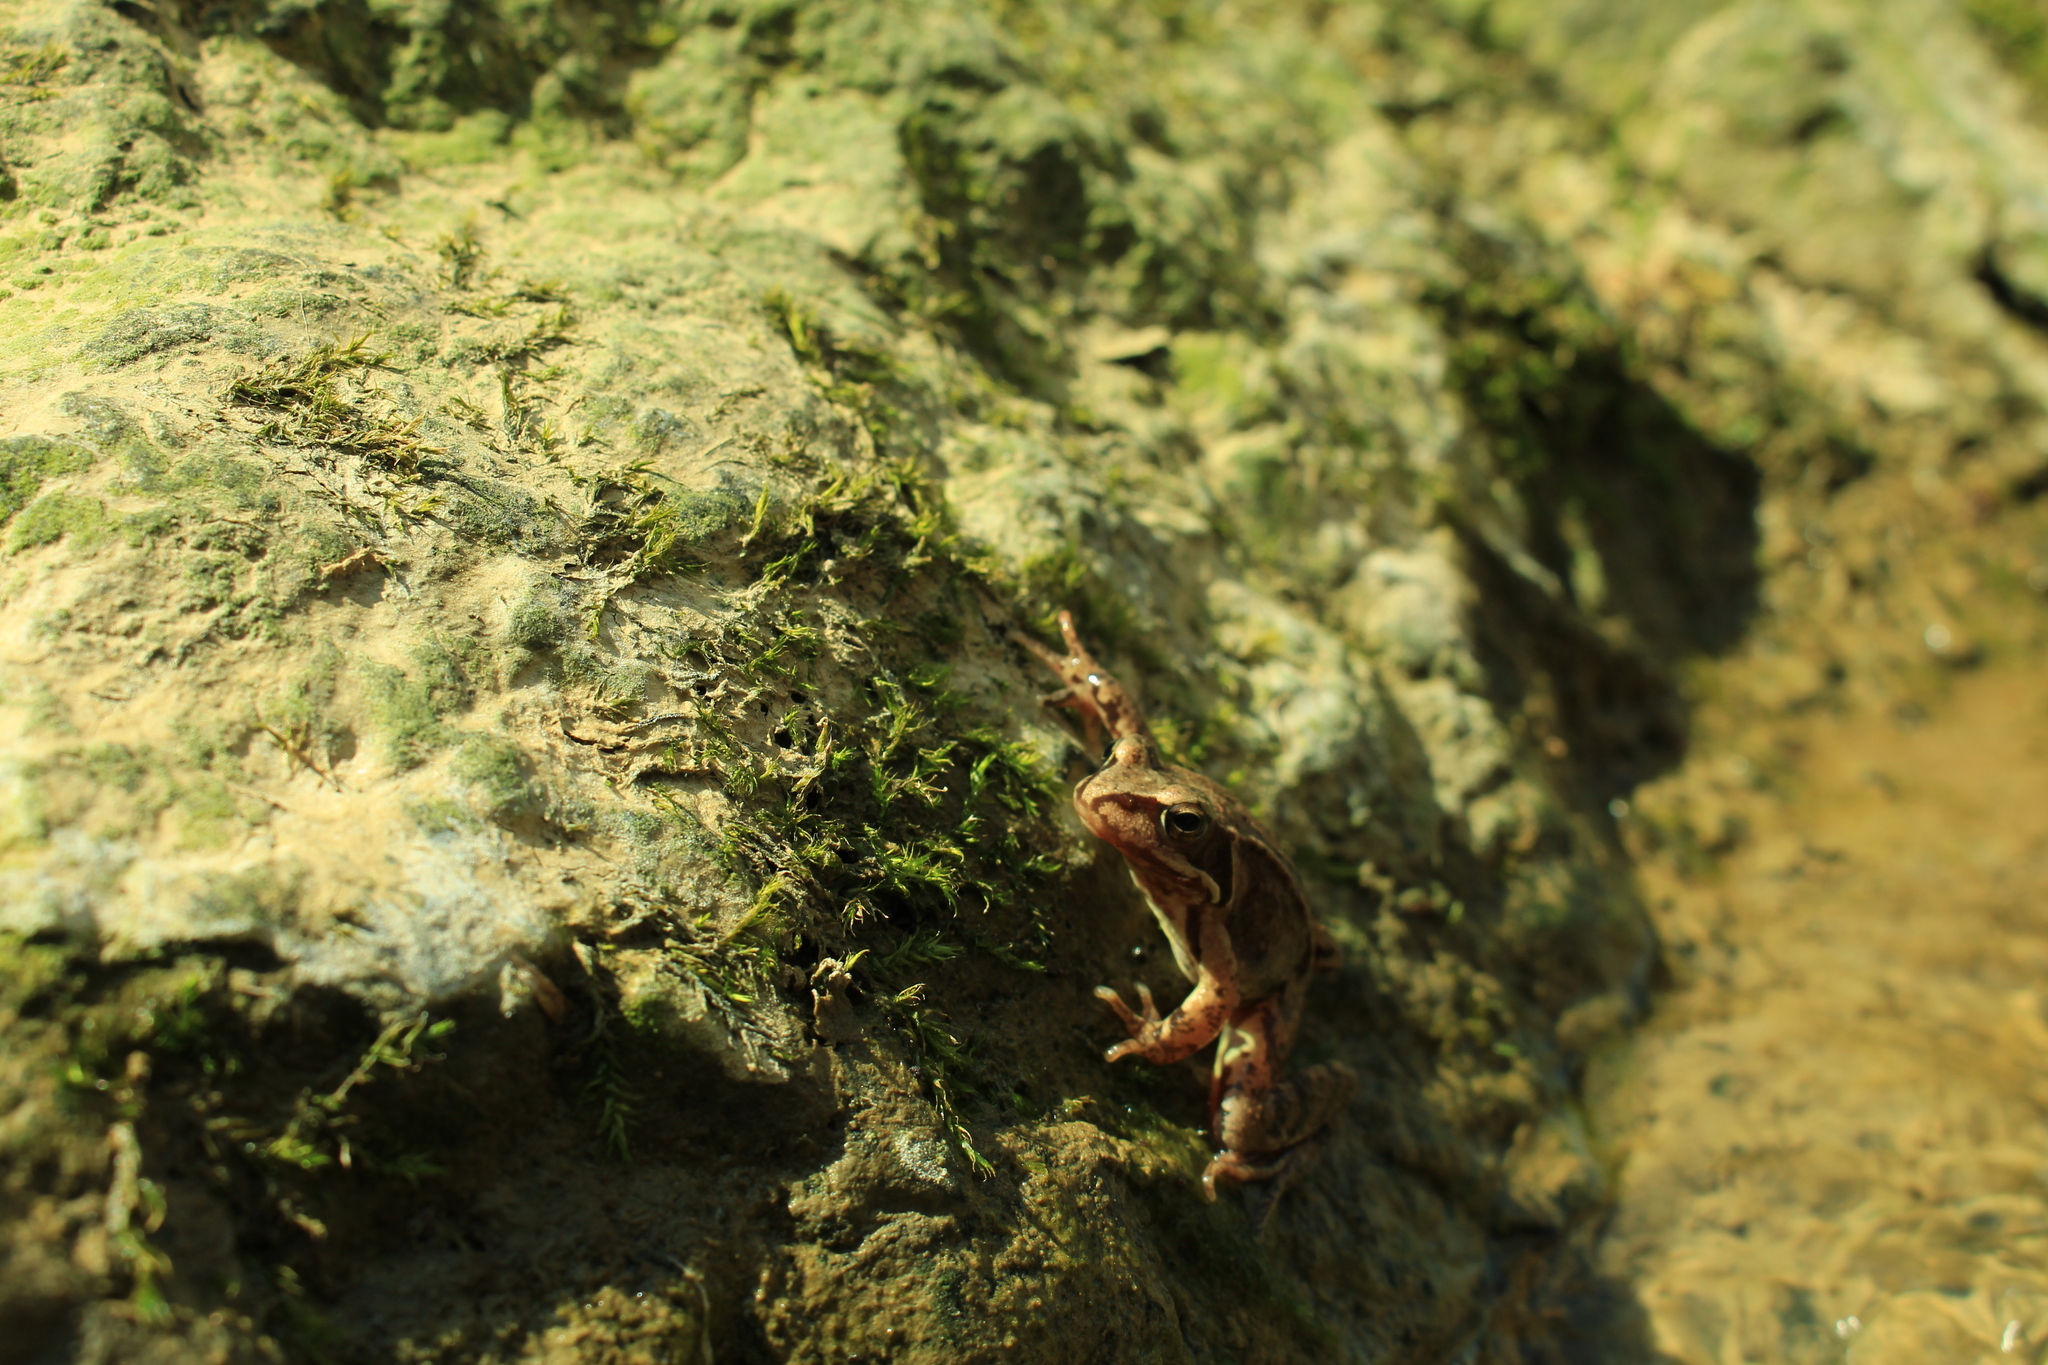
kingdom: Animalia
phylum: Chordata
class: Amphibia
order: Anura
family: Ranidae
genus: Rana
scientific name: Rana temporaria
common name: Common frog
